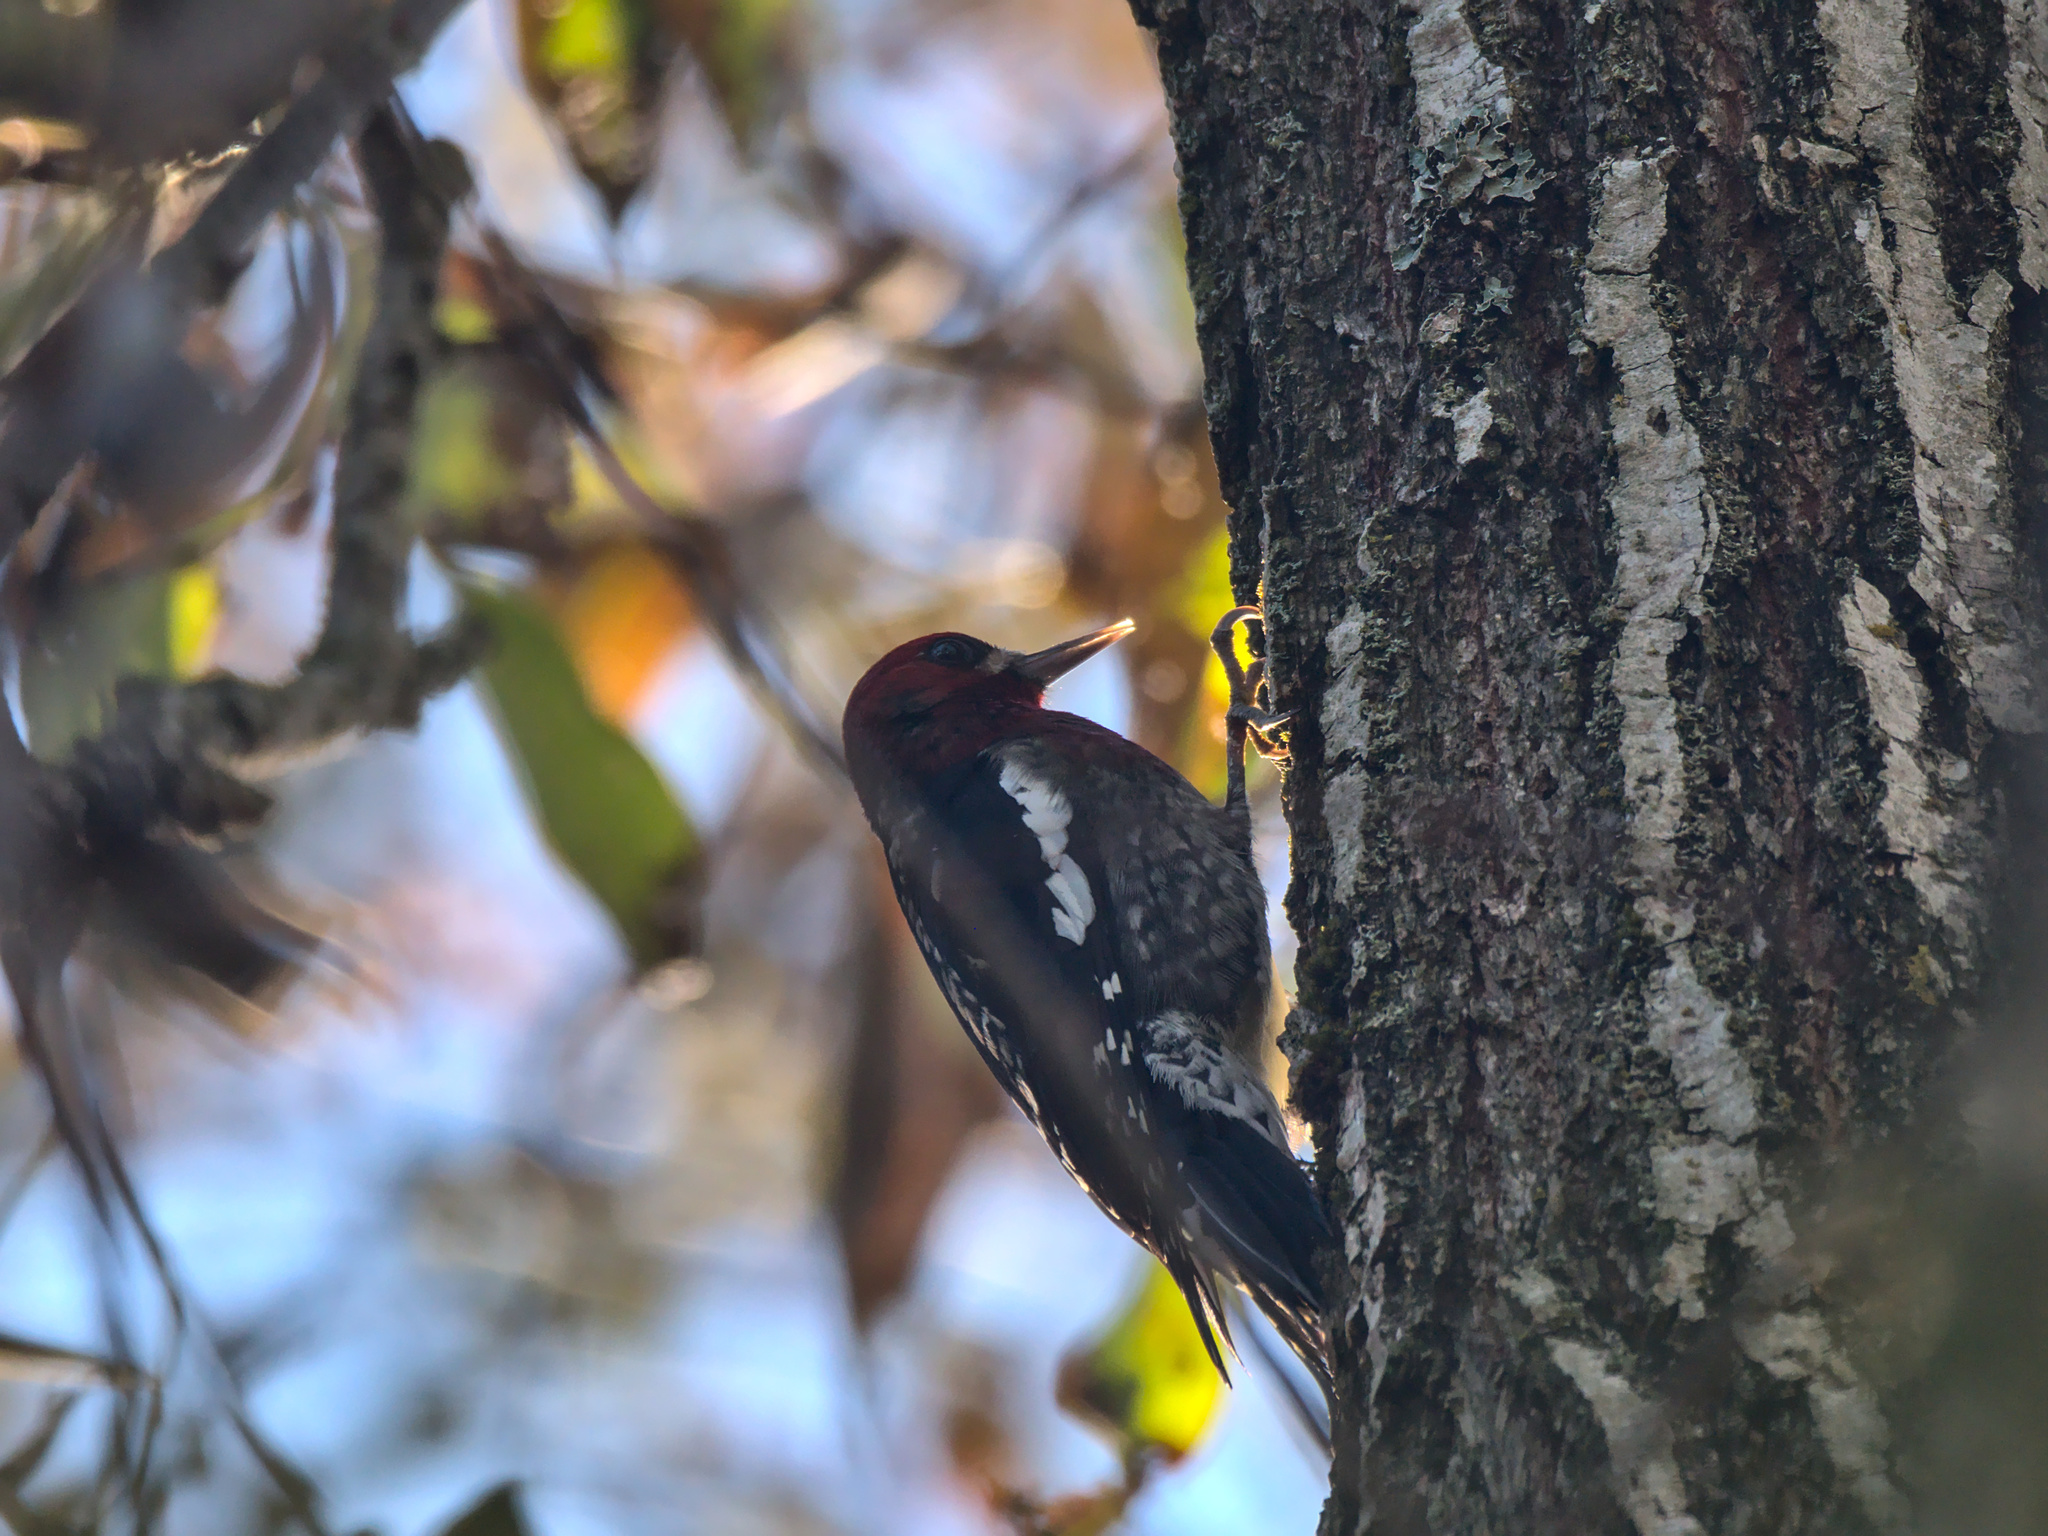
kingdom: Animalia
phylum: Chordata
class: Aves
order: Piciformes
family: Picidae
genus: Sphyrapicus
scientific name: Sphyrapicus ruber
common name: Red-breasted sapsucker
